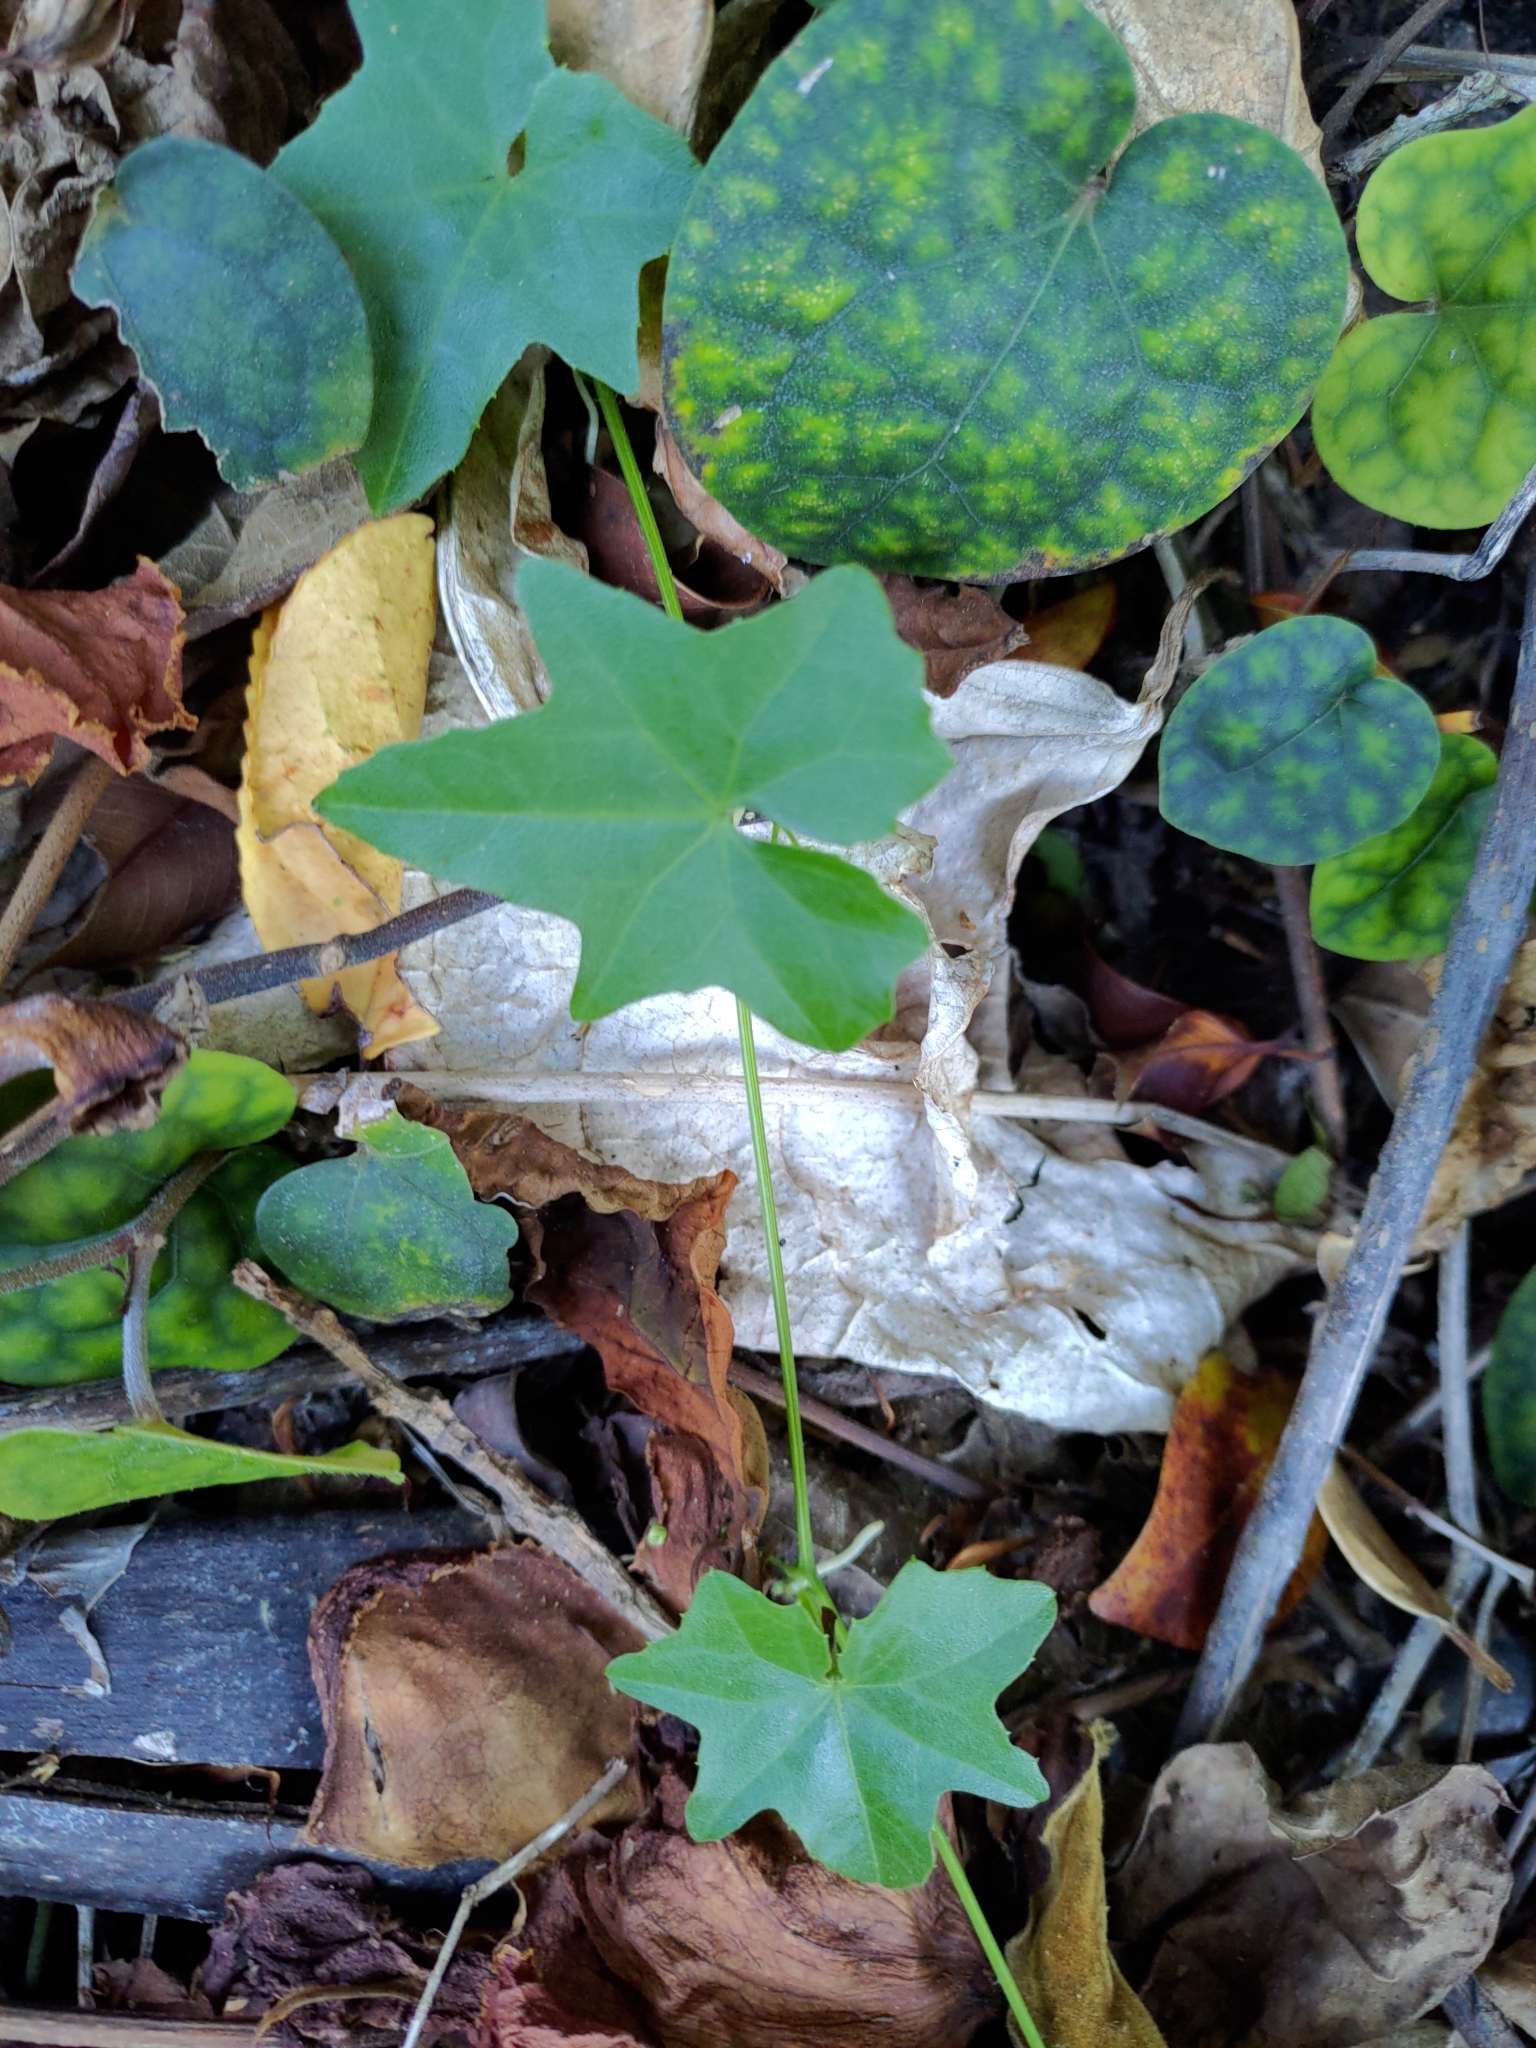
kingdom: Plantae
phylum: Tracheophyta
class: Magnoliopsida
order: Cucurbitales
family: Cucurbitaceae
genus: Melothria
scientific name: Melothria pendula
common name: Creeping-cucumber
